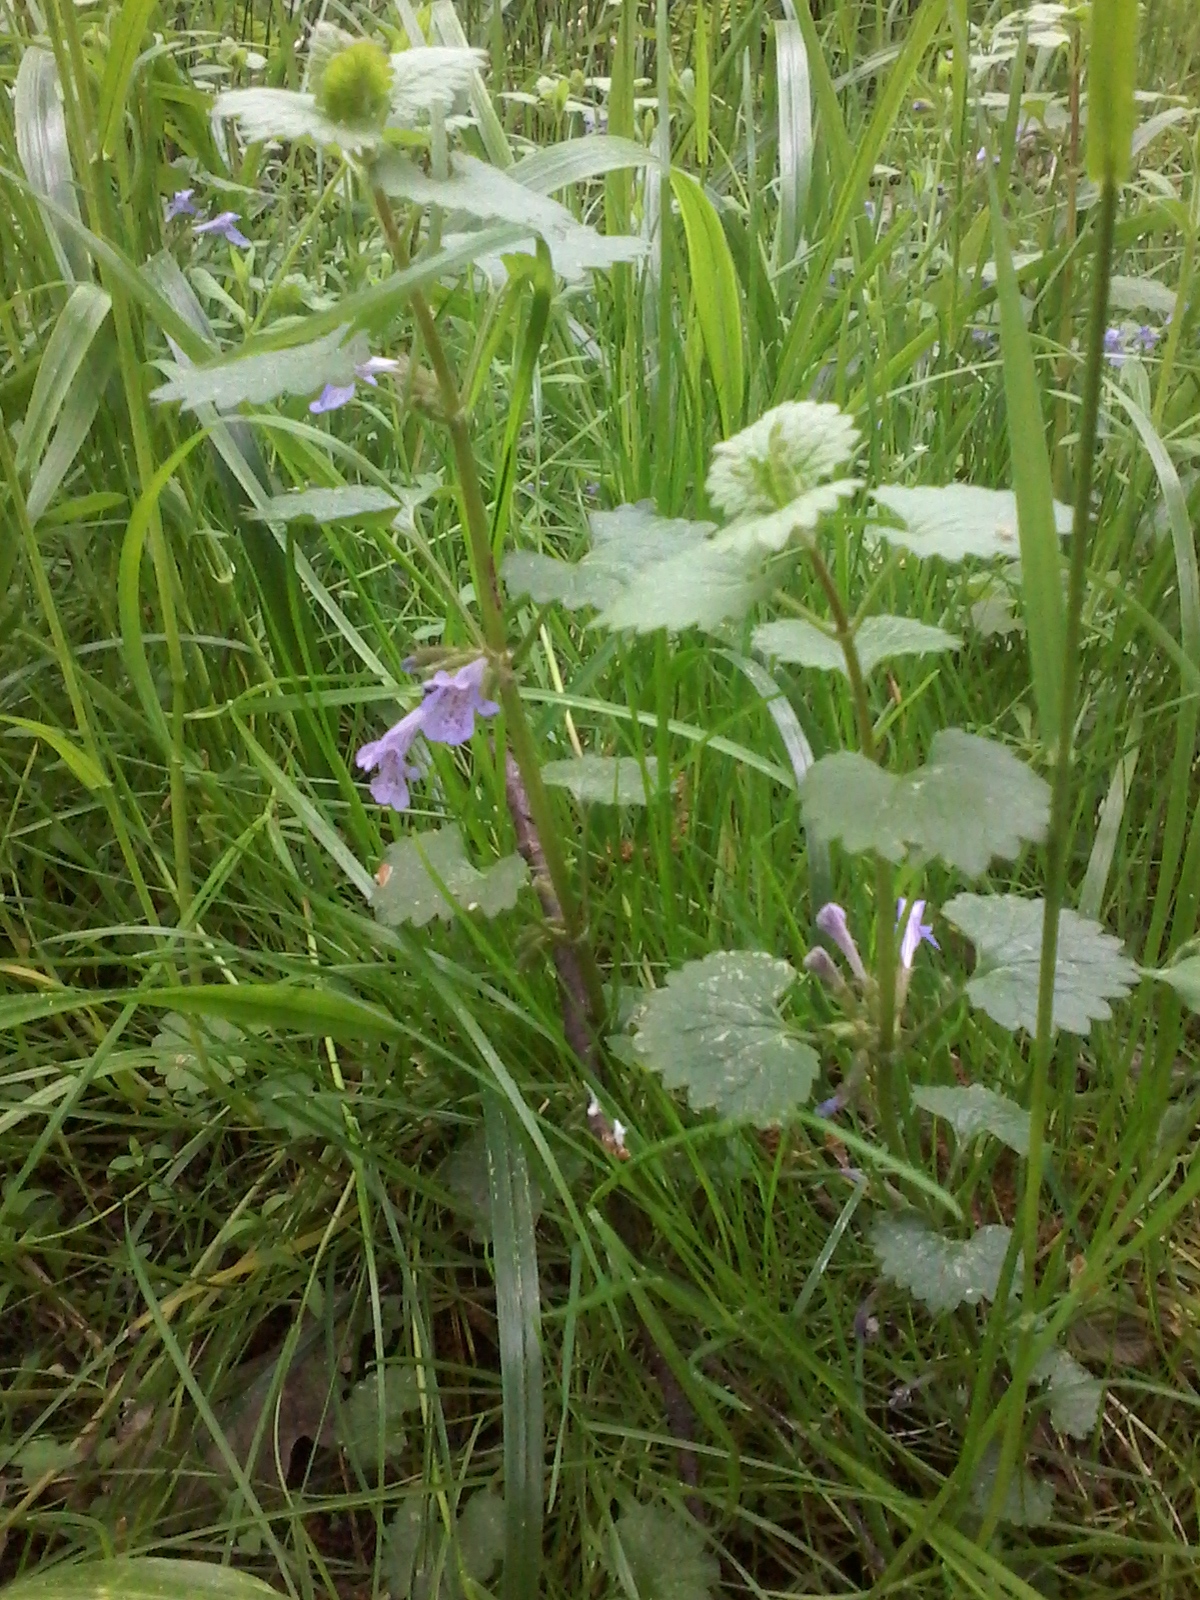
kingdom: Plantae
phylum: Tracheophyta
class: Magnoliopsida
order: Lamiales
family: Lamiaceae
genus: Glechoma
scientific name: Glechoma hederacea
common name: Ground ivy
